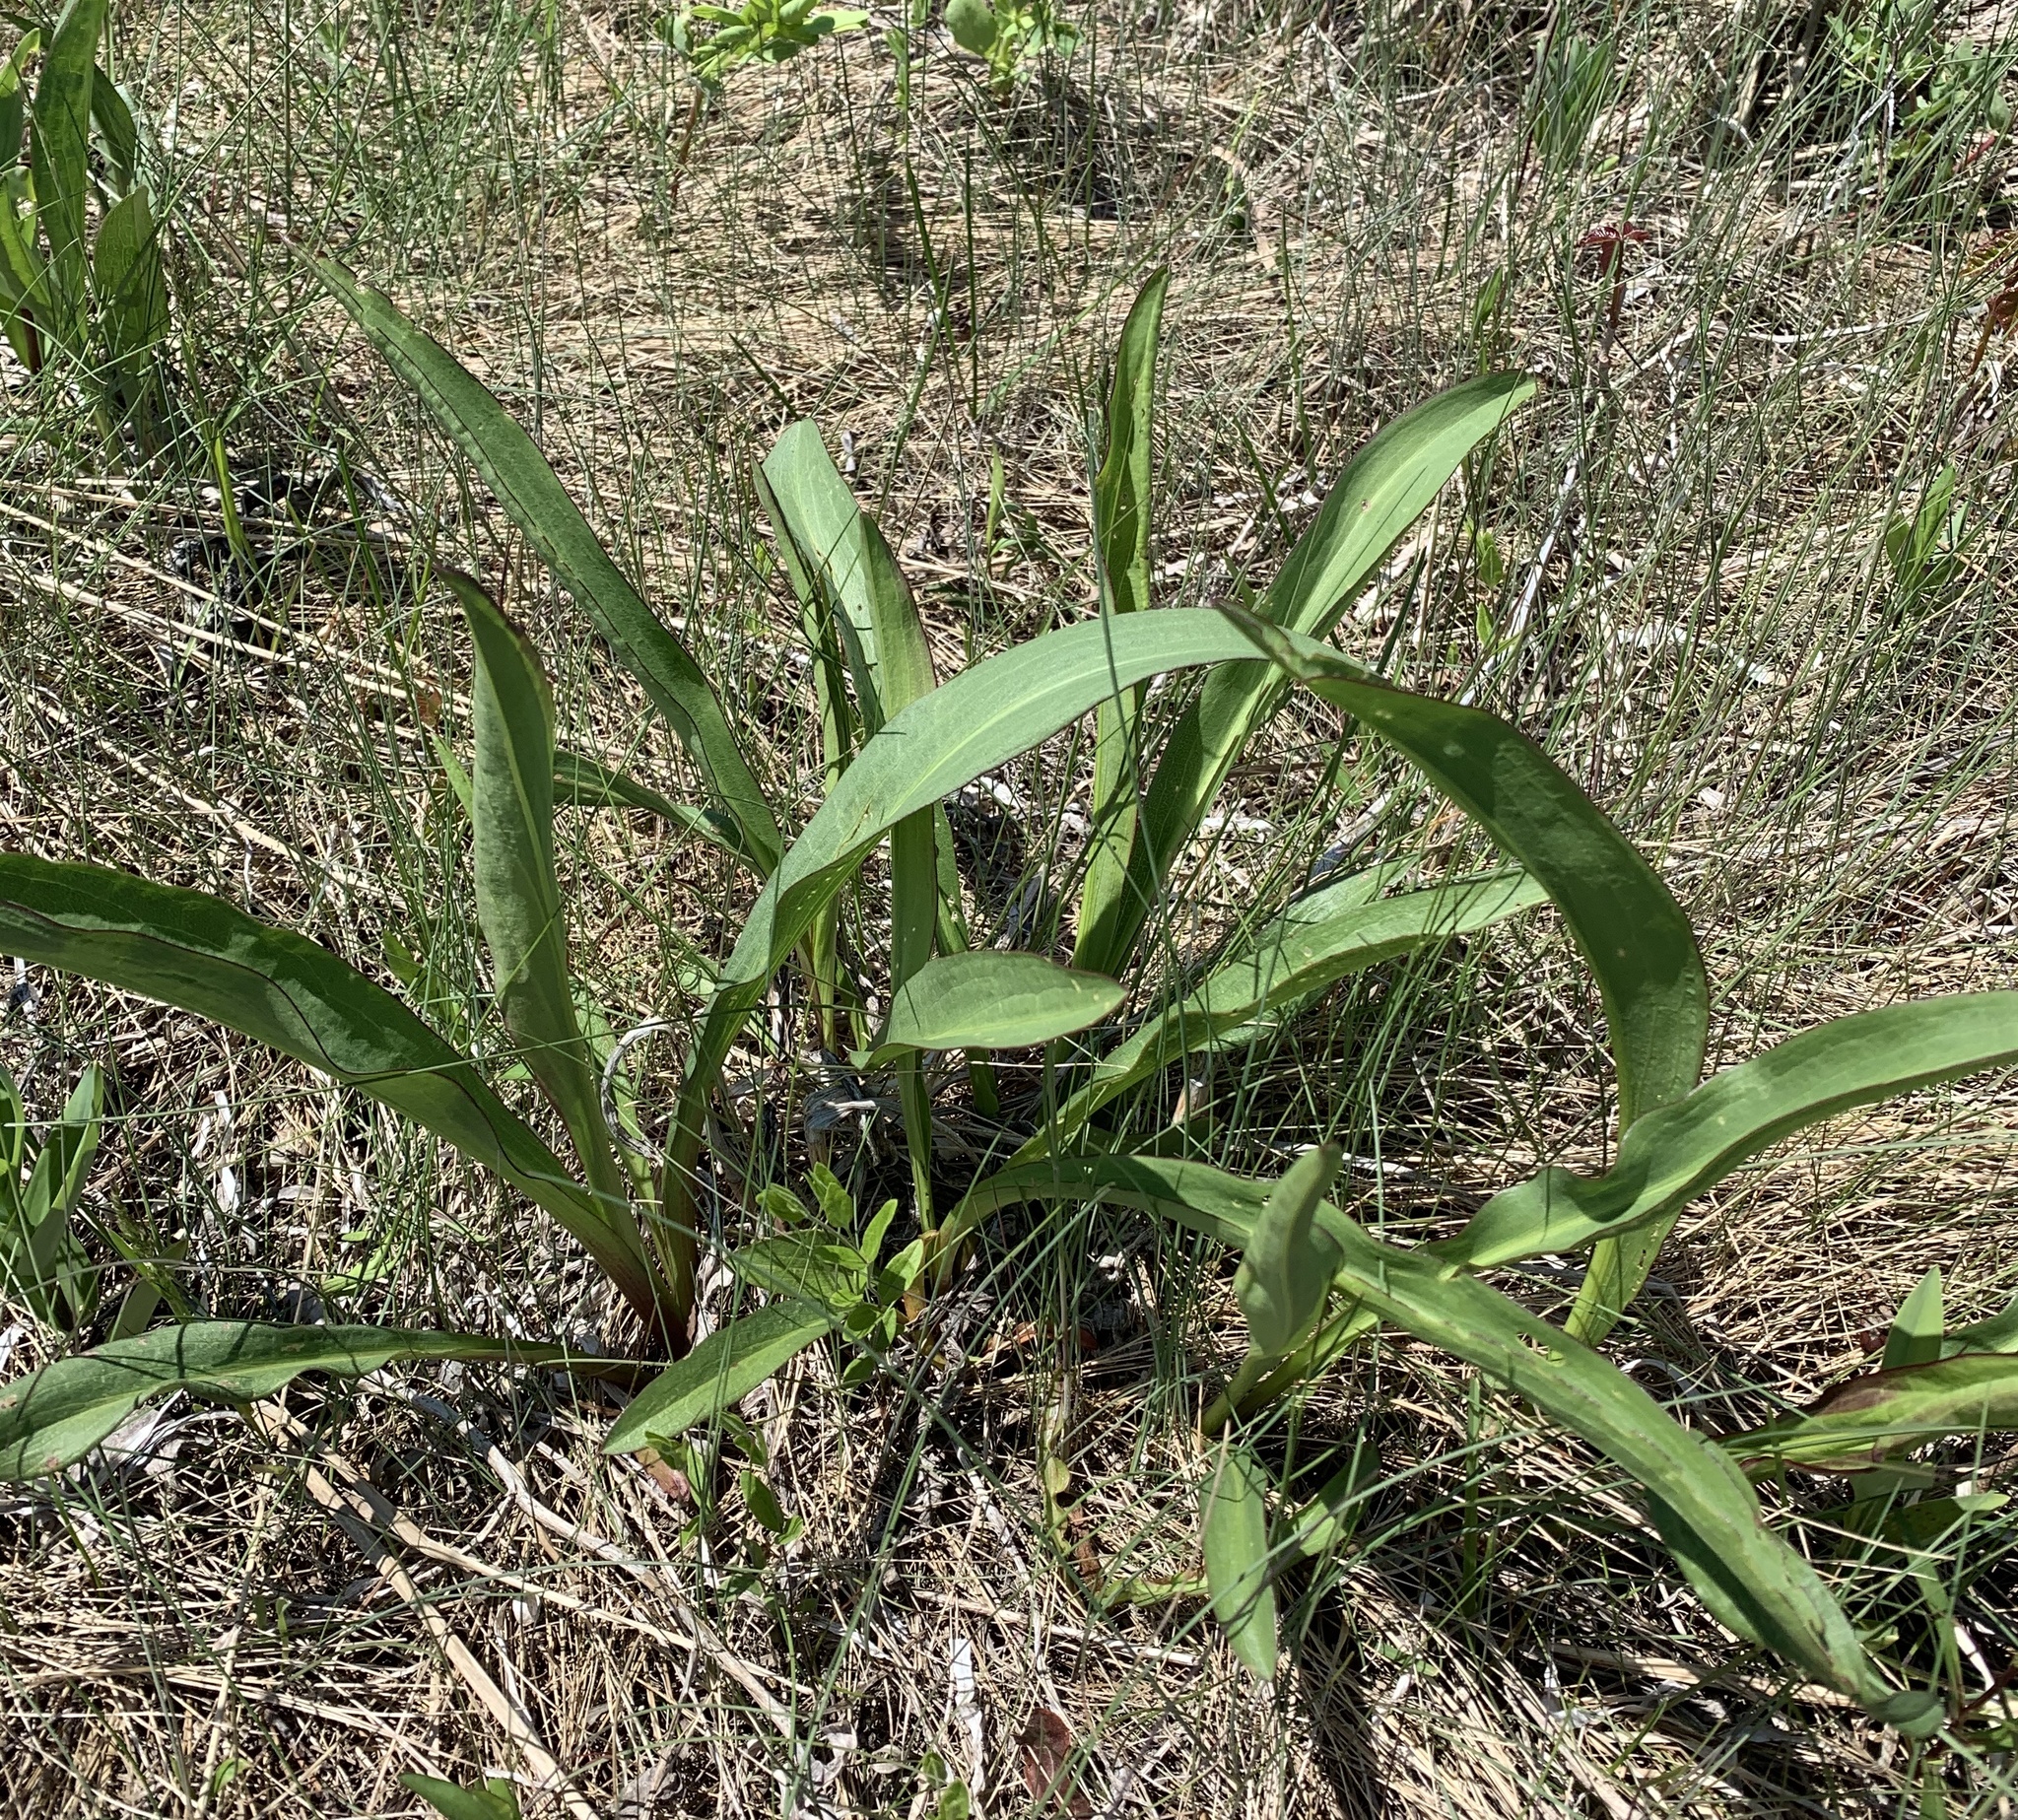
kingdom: Plantae
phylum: Tracheophyta
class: Magnoliopsida
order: Asterales
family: Asteraceae
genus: Solidago
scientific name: Solidago sempervirens
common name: Salt-marsh goldenrod
